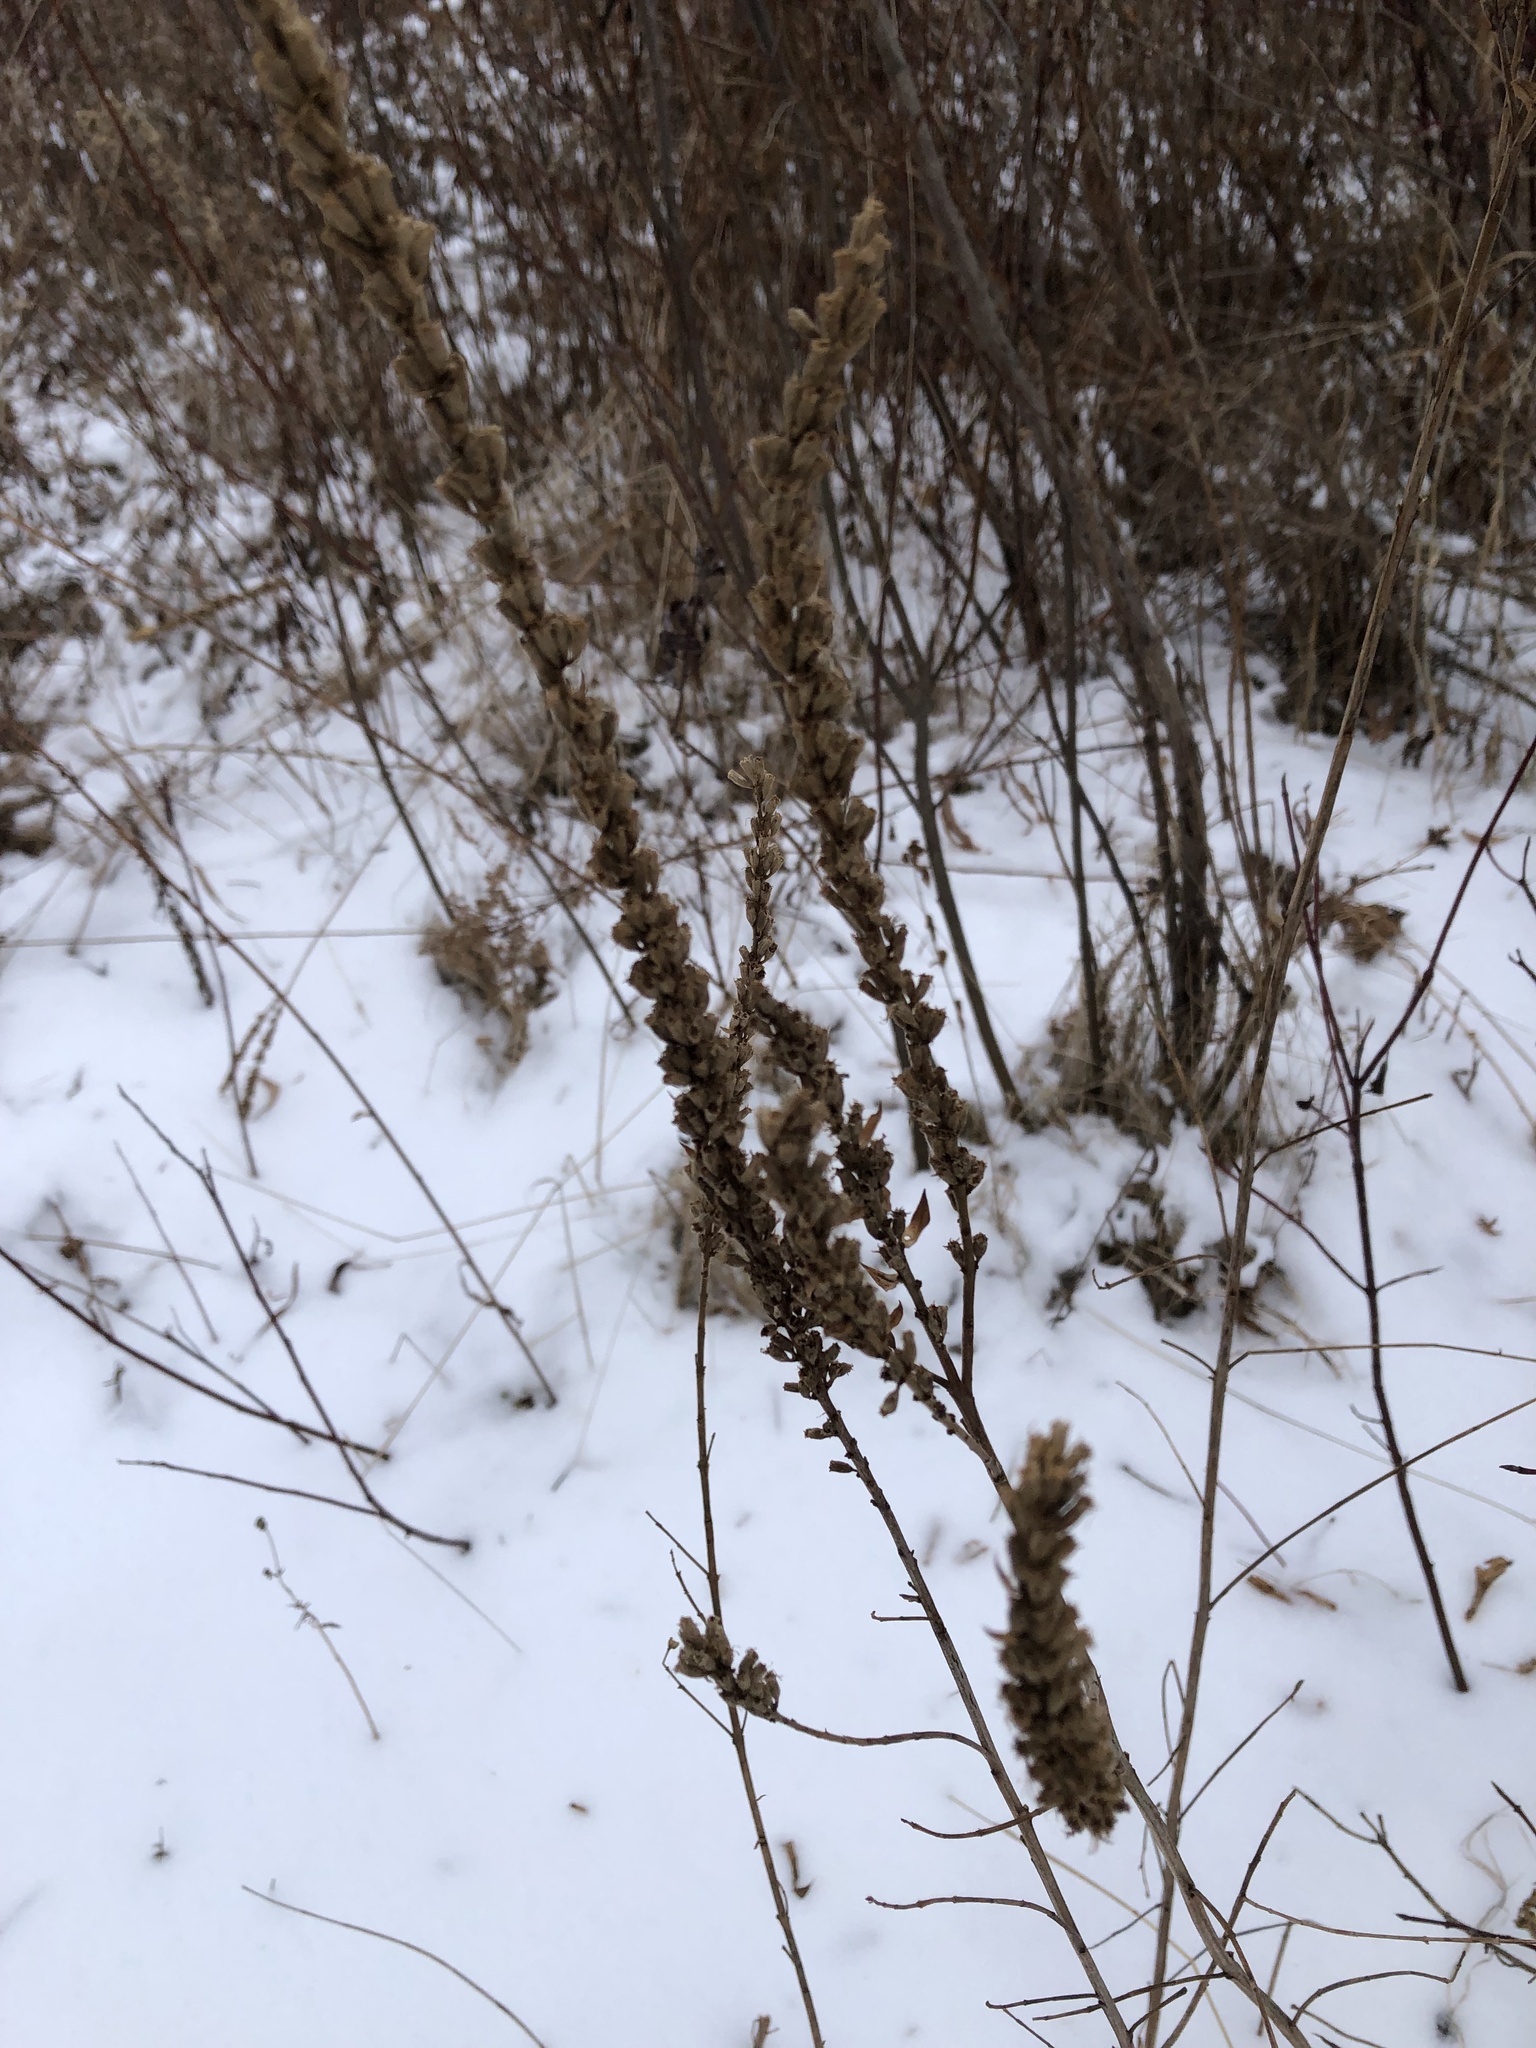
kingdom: Plantae
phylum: Tracheophyta
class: Magnoliopsida
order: Myrtales
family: Lythraceae
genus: Lythrum
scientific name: Lythrum salicaria
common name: Purple loosestrife
